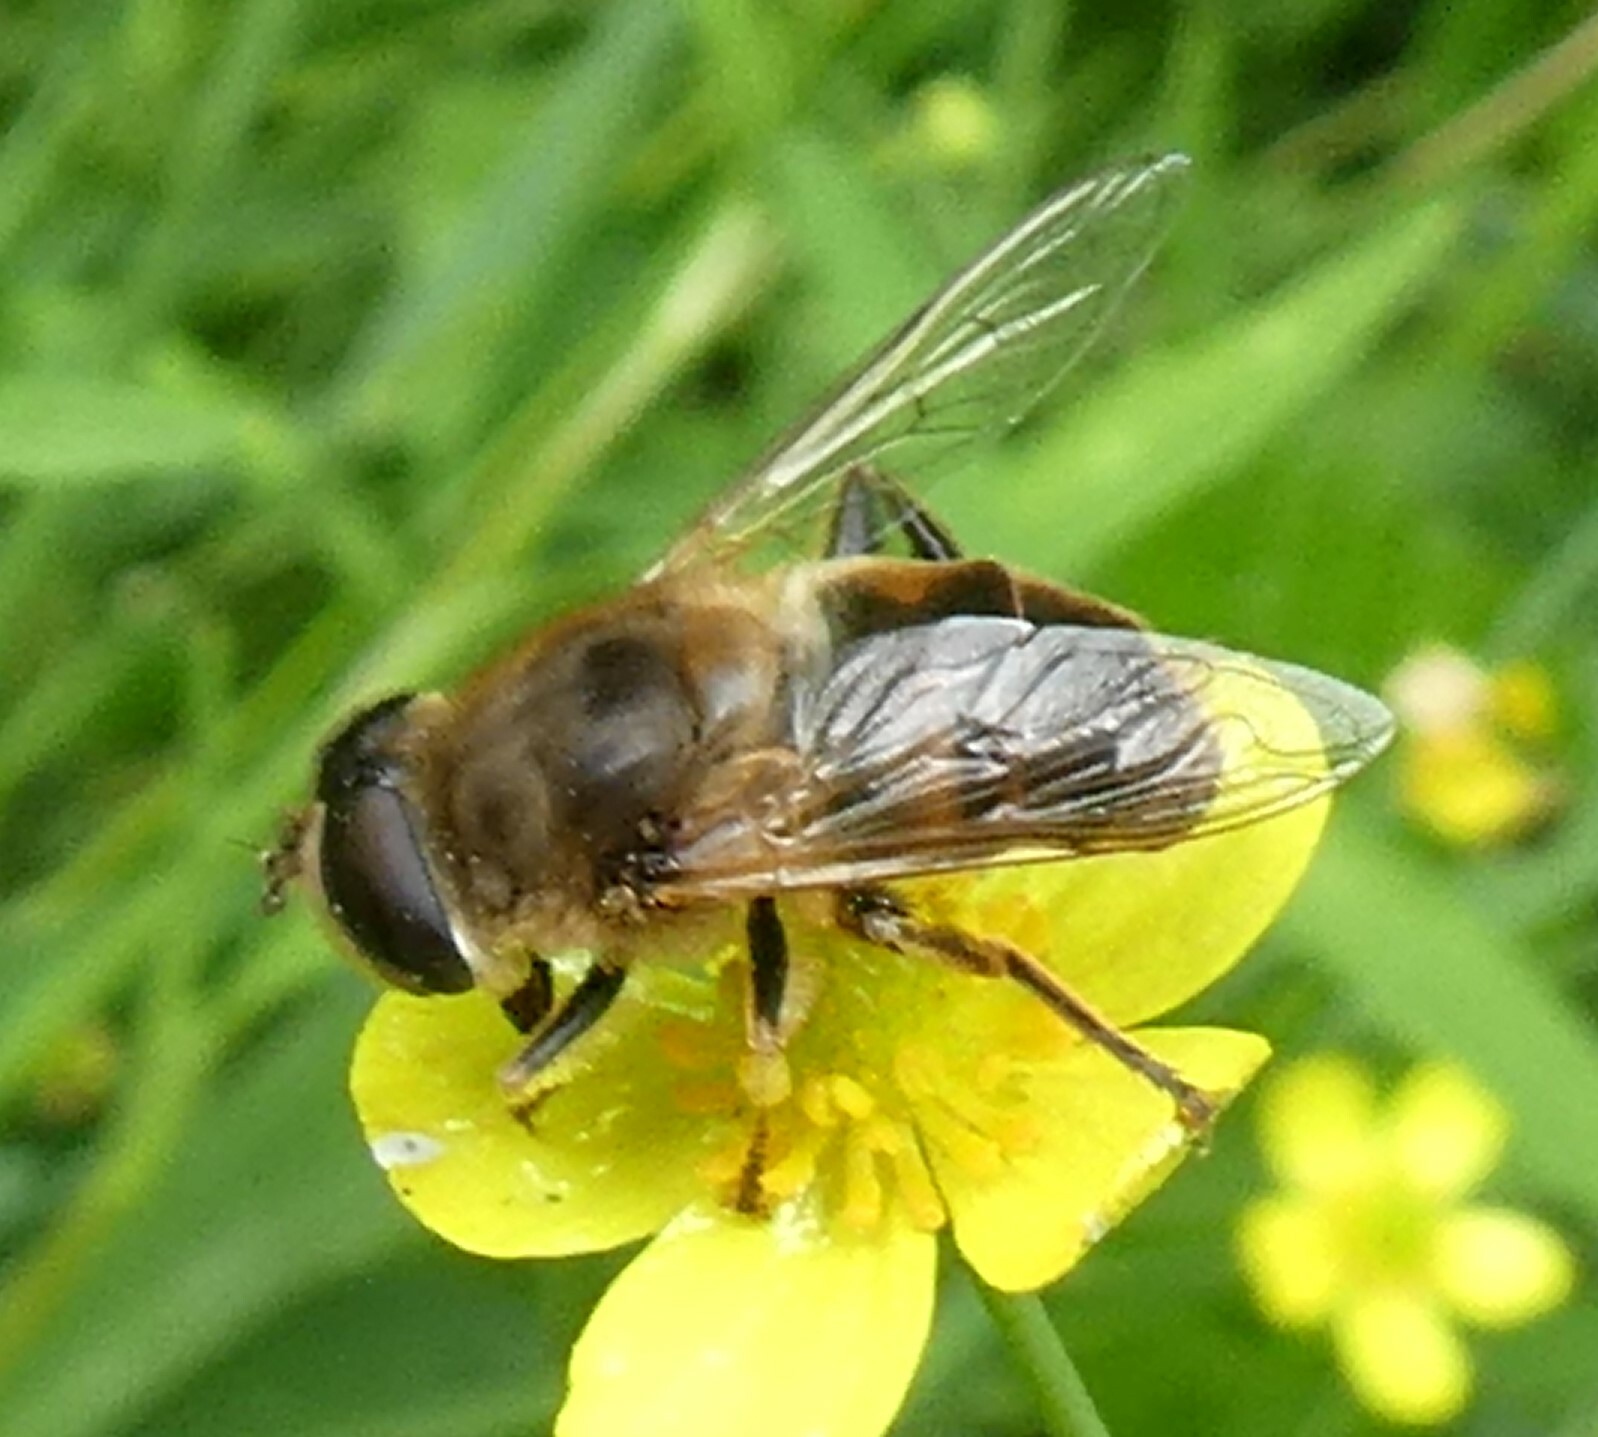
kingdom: Animalia
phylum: Arthropoda
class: Insecta
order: Diptera
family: Syrphidae
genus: Eristalis
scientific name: Eristalis tenax
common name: Drone fly
